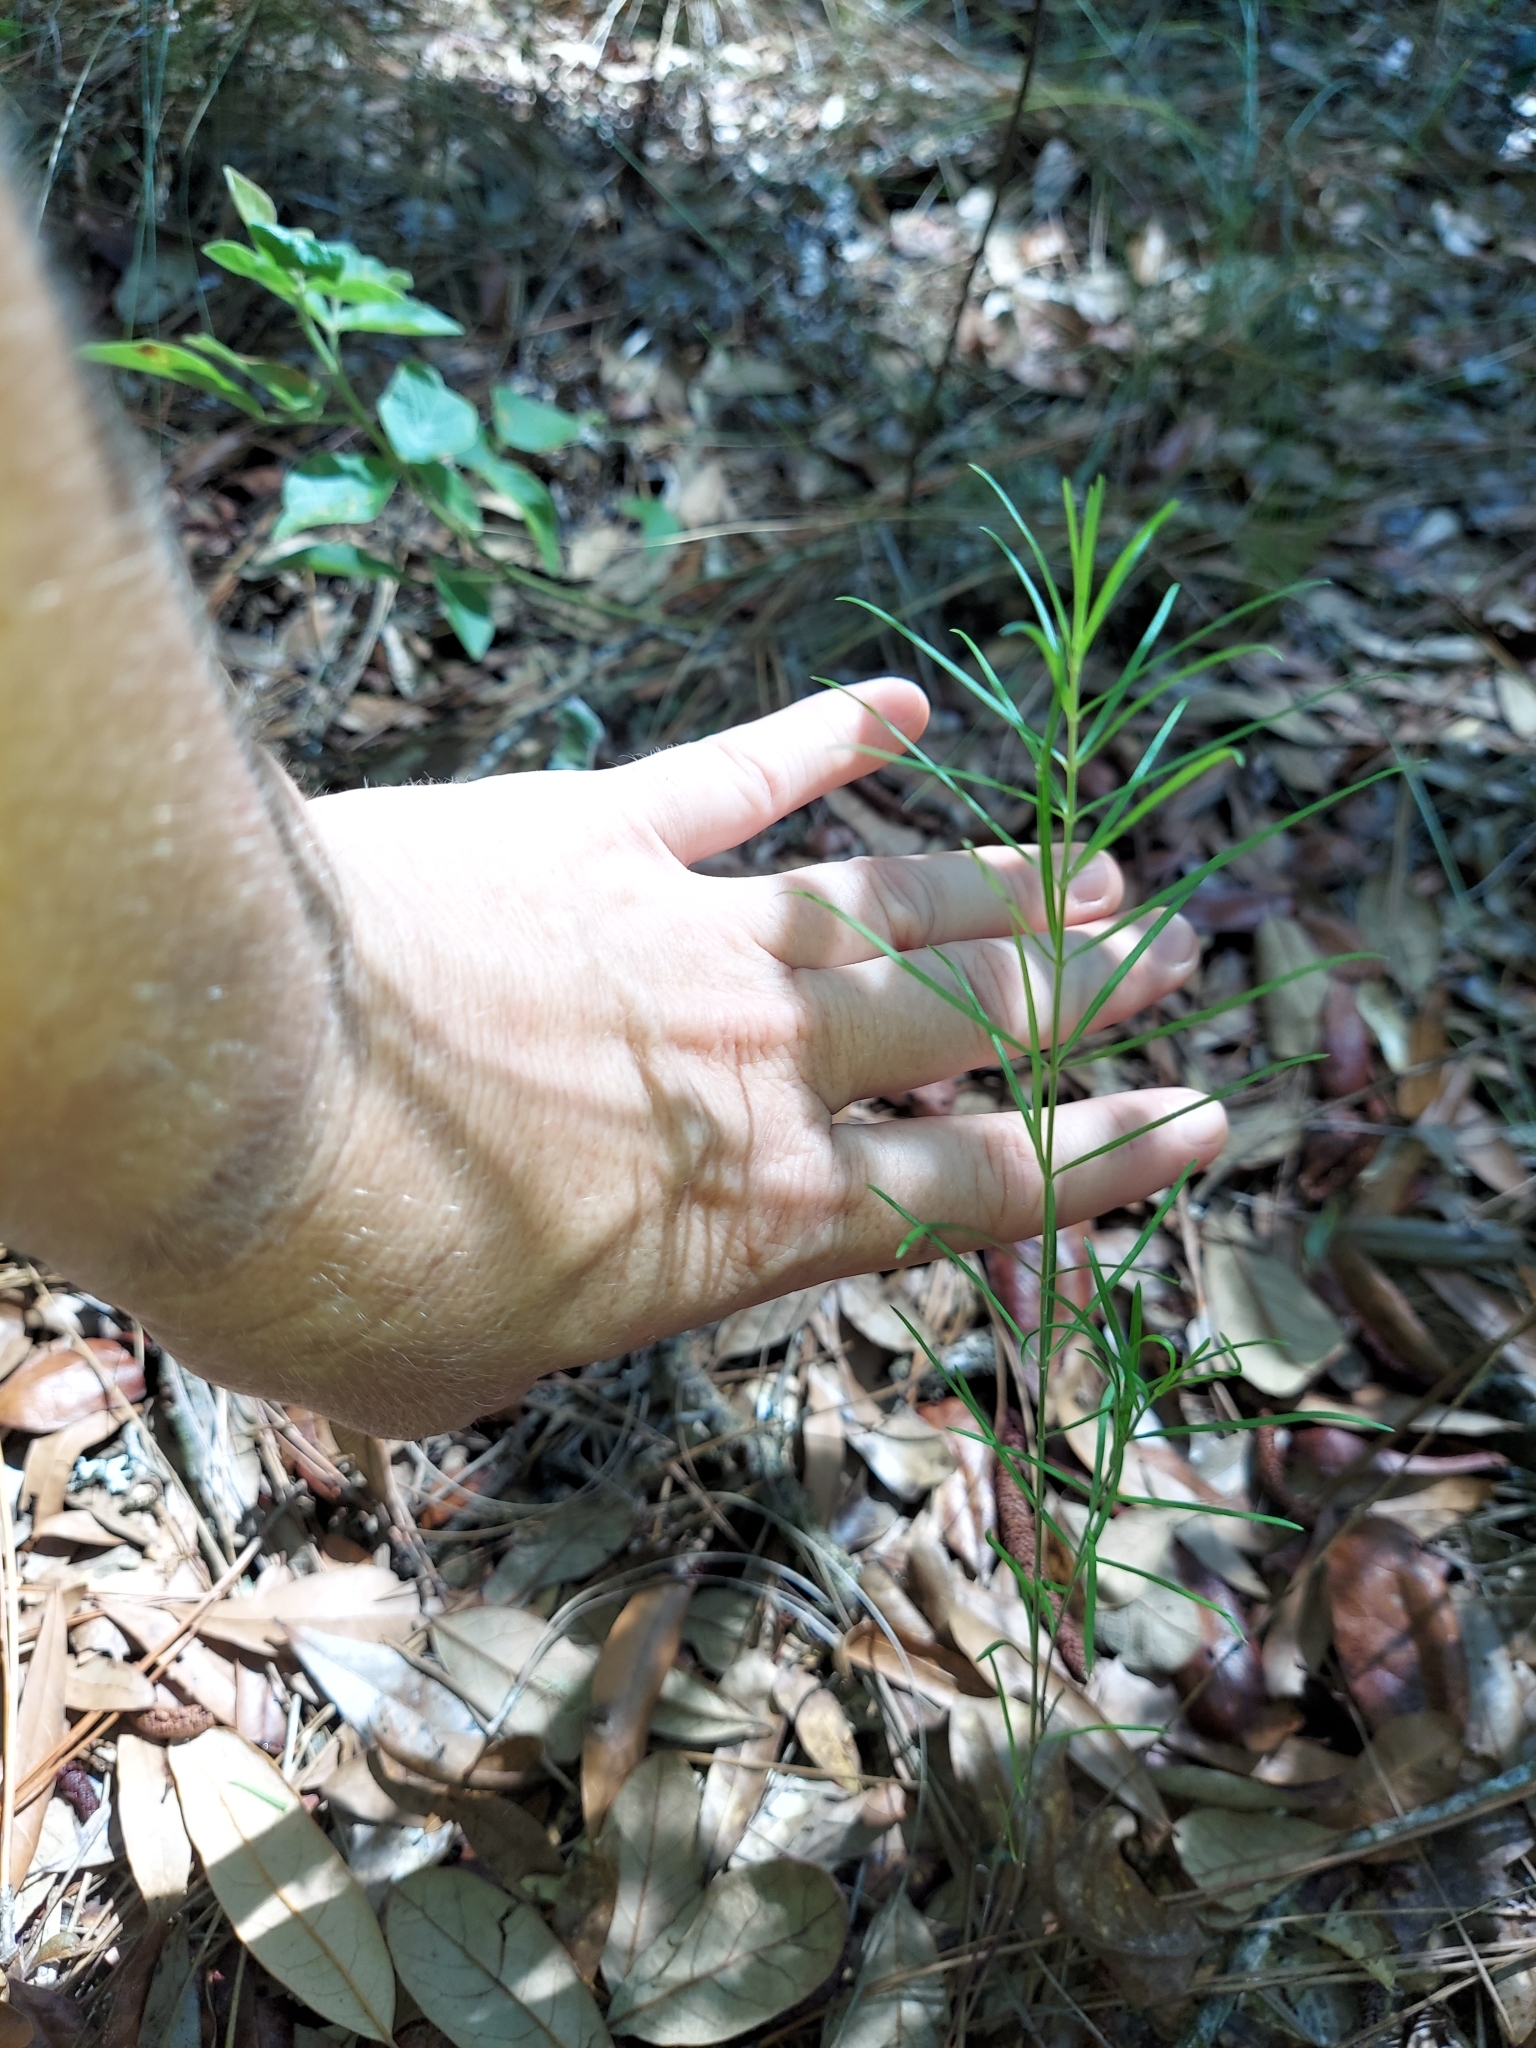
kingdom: Plantae
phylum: Tracheophyta
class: Magnoliopsida
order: Gentianales
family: Apocynaceae
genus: Asclepias
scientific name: Asclepias verticillata
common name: Eastern whorled milkweed
